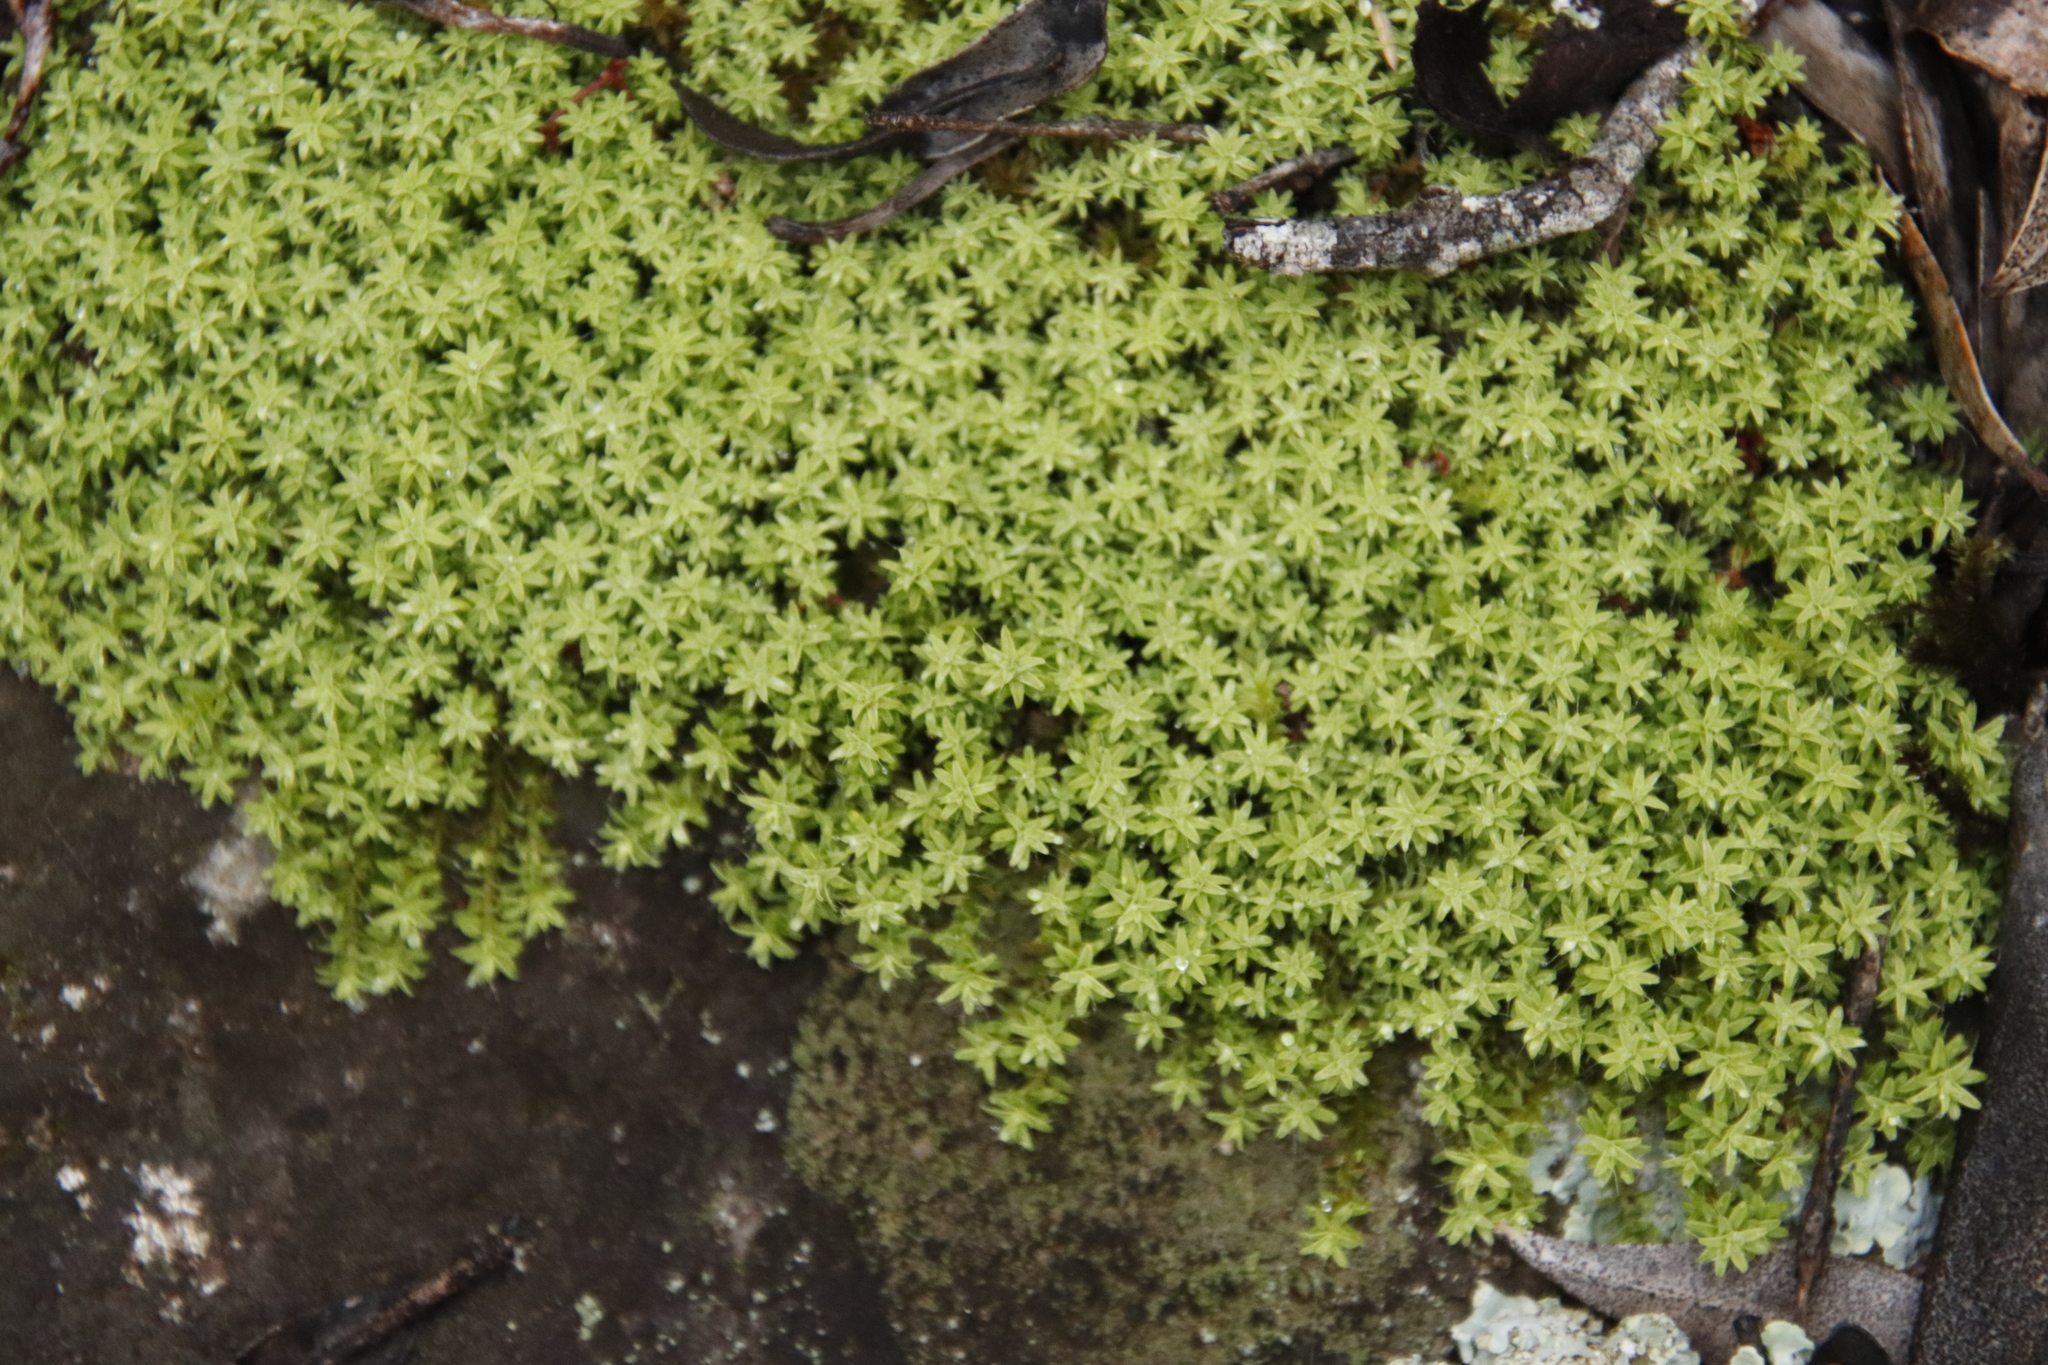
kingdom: Plantae
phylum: Bryophyta
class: Bryopsida
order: Pottiales
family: Pottiaceae
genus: Pseudocrossidium
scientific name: Pseudocrossidium crinitum
